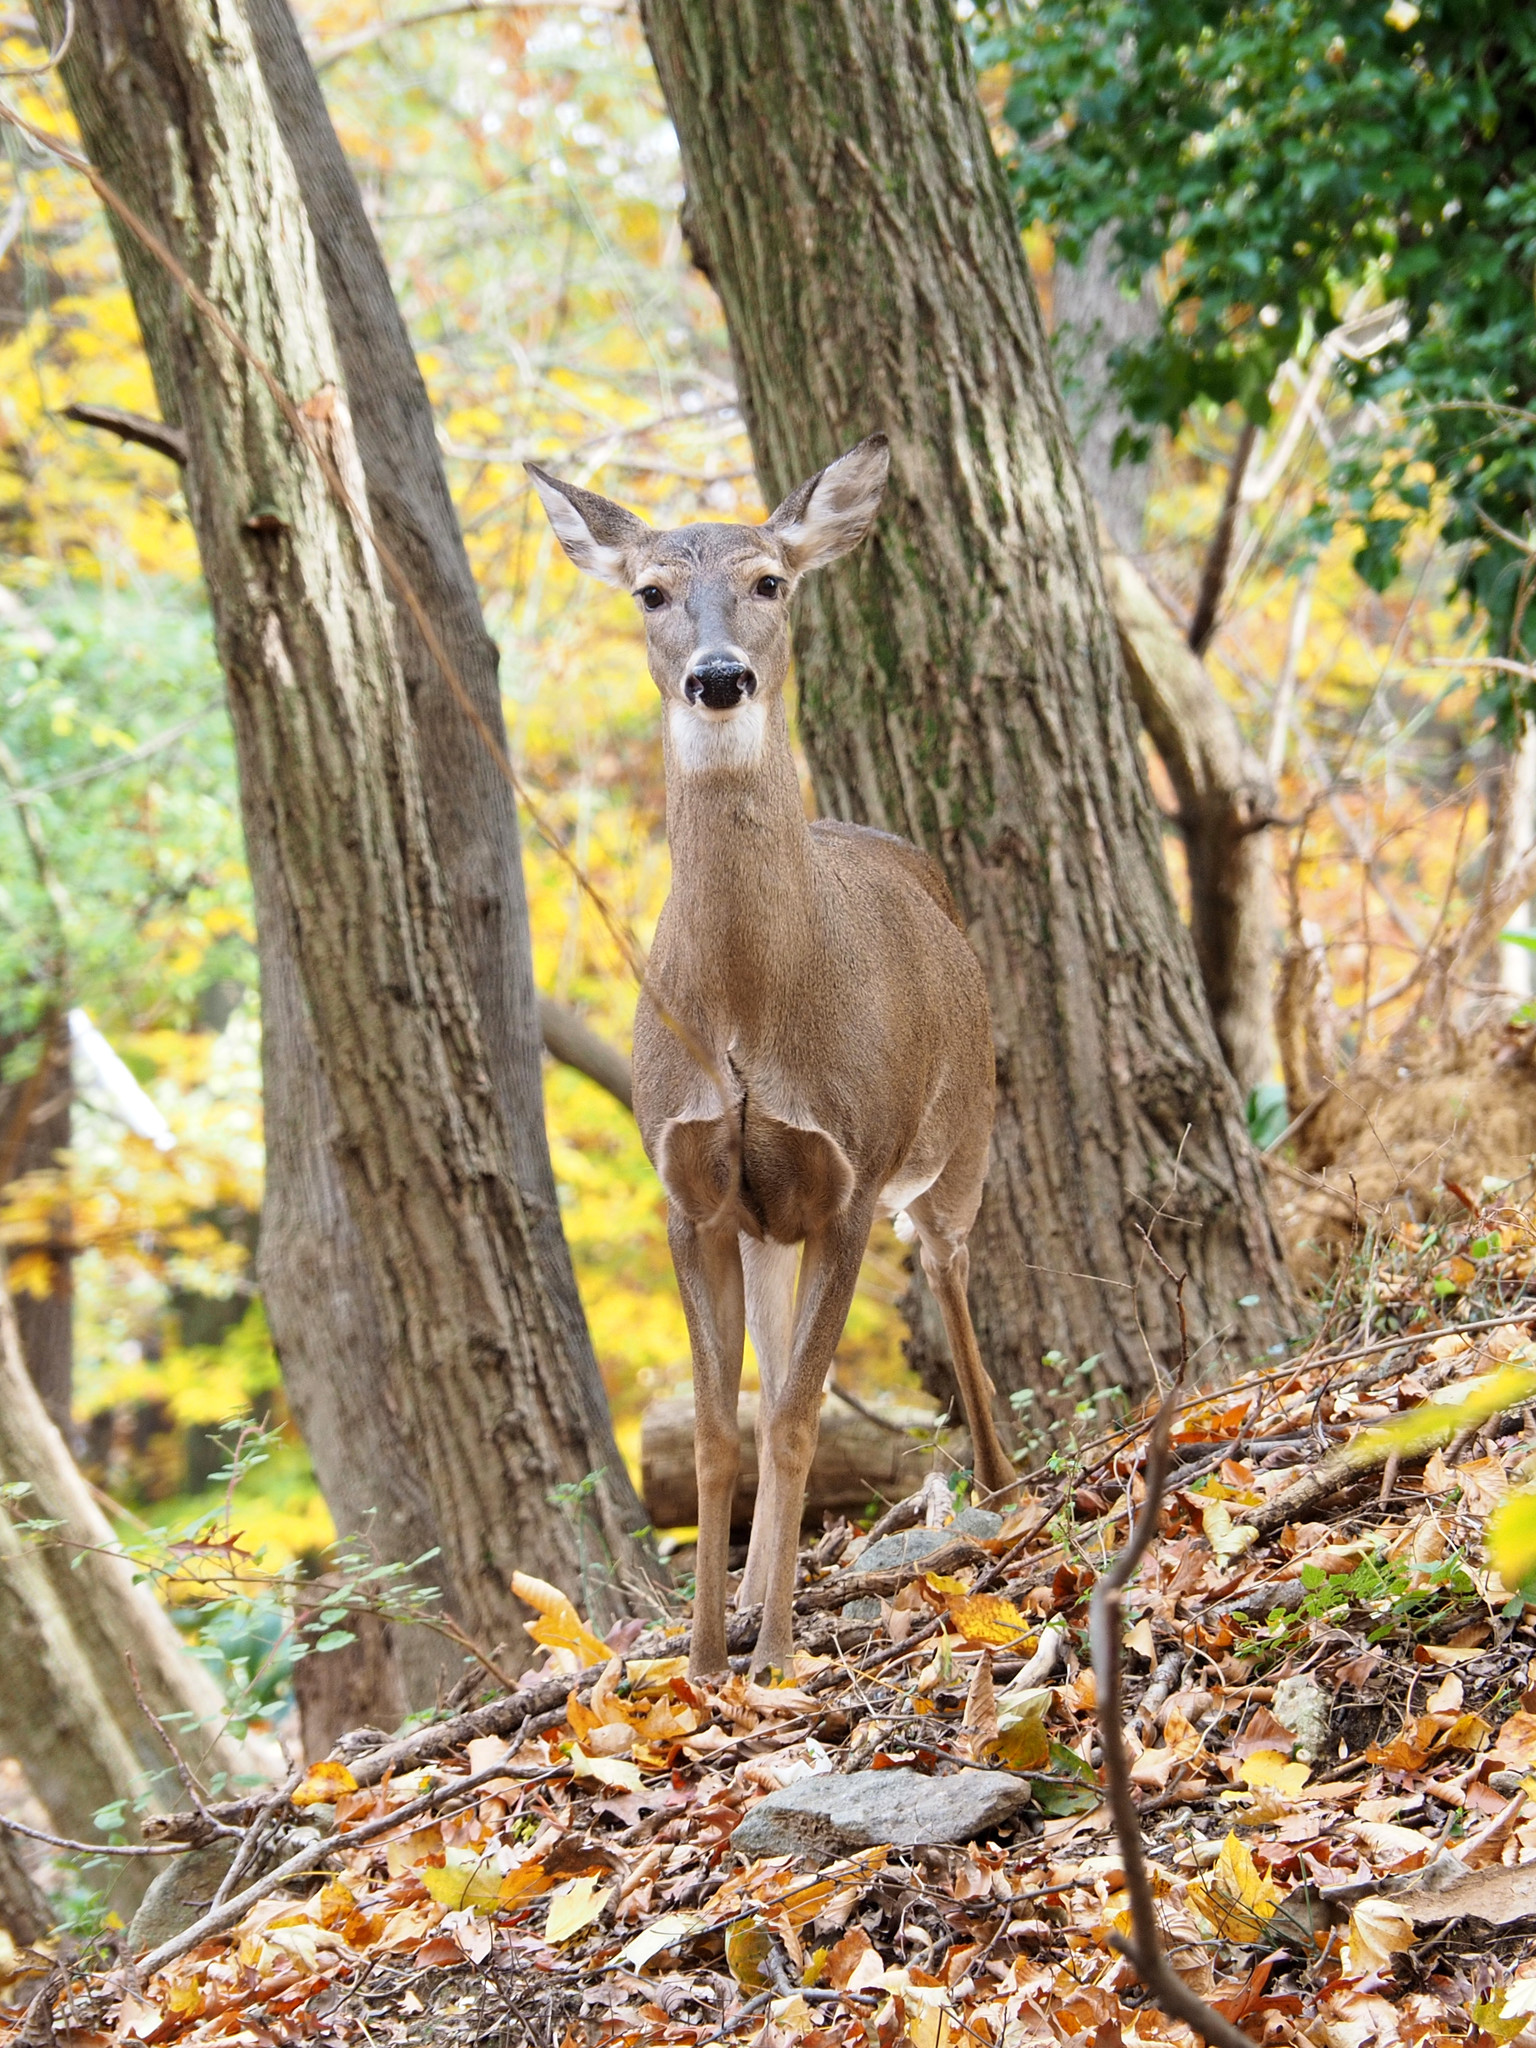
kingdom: Animalia
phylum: Chordata
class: Mammalia
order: Artiodactyla
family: Cervidae
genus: Odocoileus
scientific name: Odocoileus virginianus
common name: White-tailed deer
